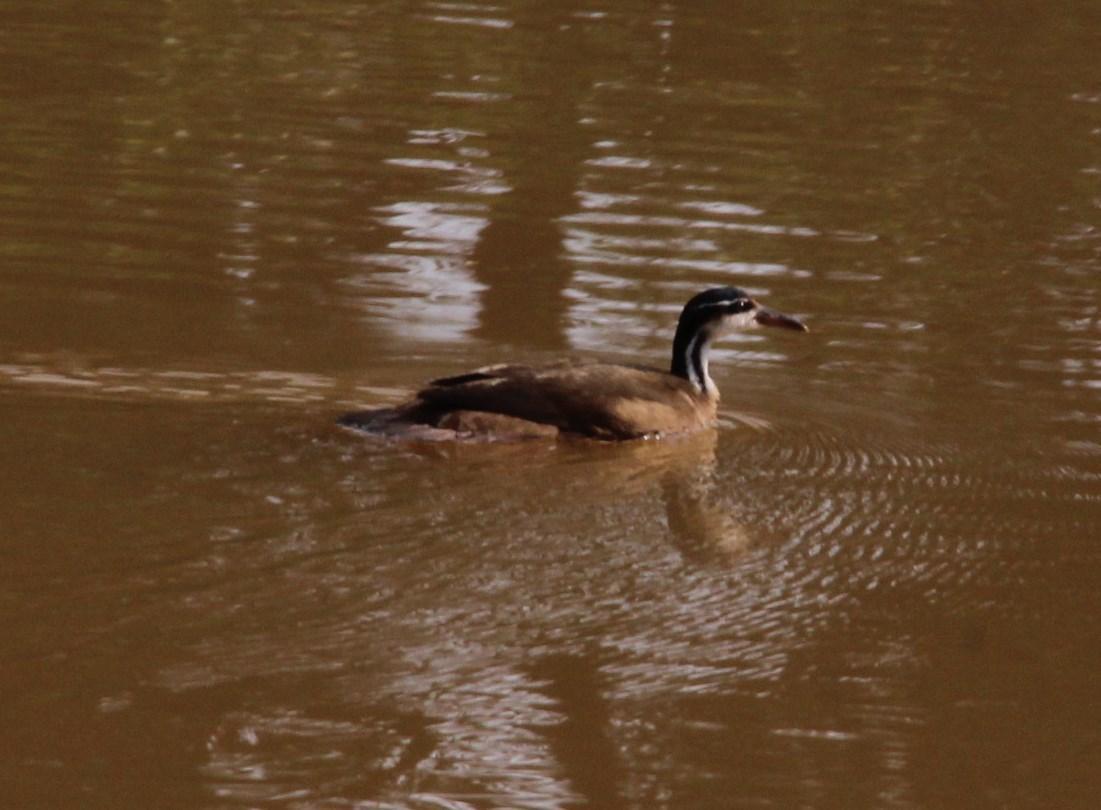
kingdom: Animalia
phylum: Chordata
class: Aves
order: Gruiformes
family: Heliornithidae
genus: Heliornis
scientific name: Heliornis fulica
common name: Sungrebe
